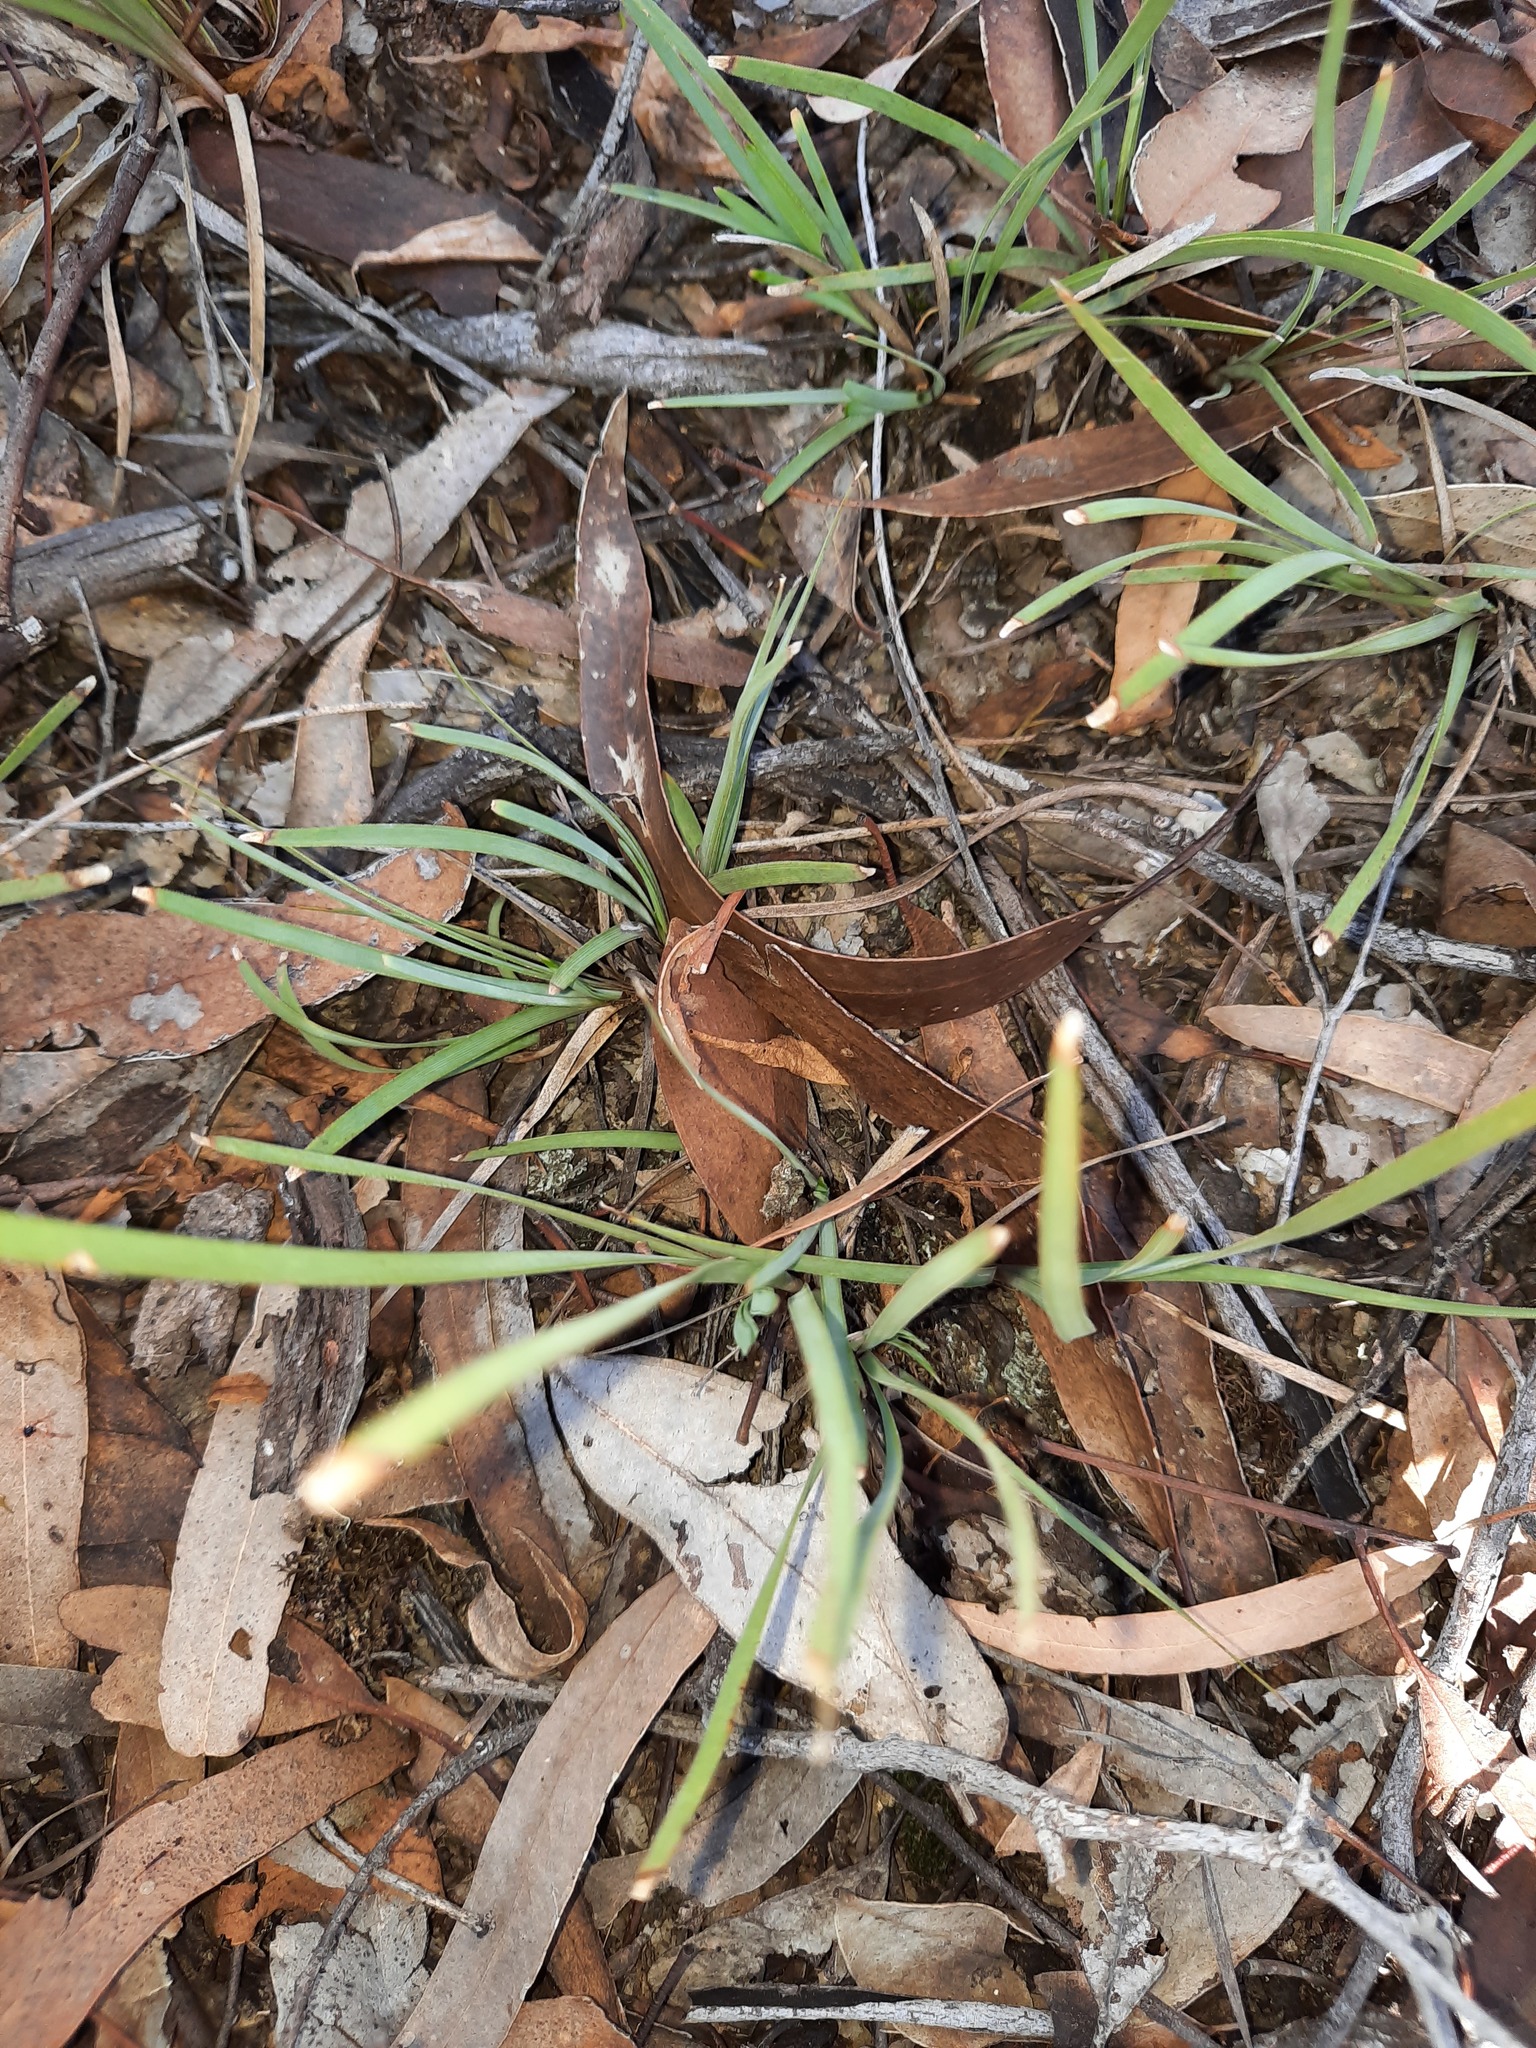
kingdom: Plantae
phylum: Tracheophyta
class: Liliopsida
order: Asparagales
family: Asparagaceae
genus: Lomandra
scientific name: Lomandra filiformis
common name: Wattle mat-rush
